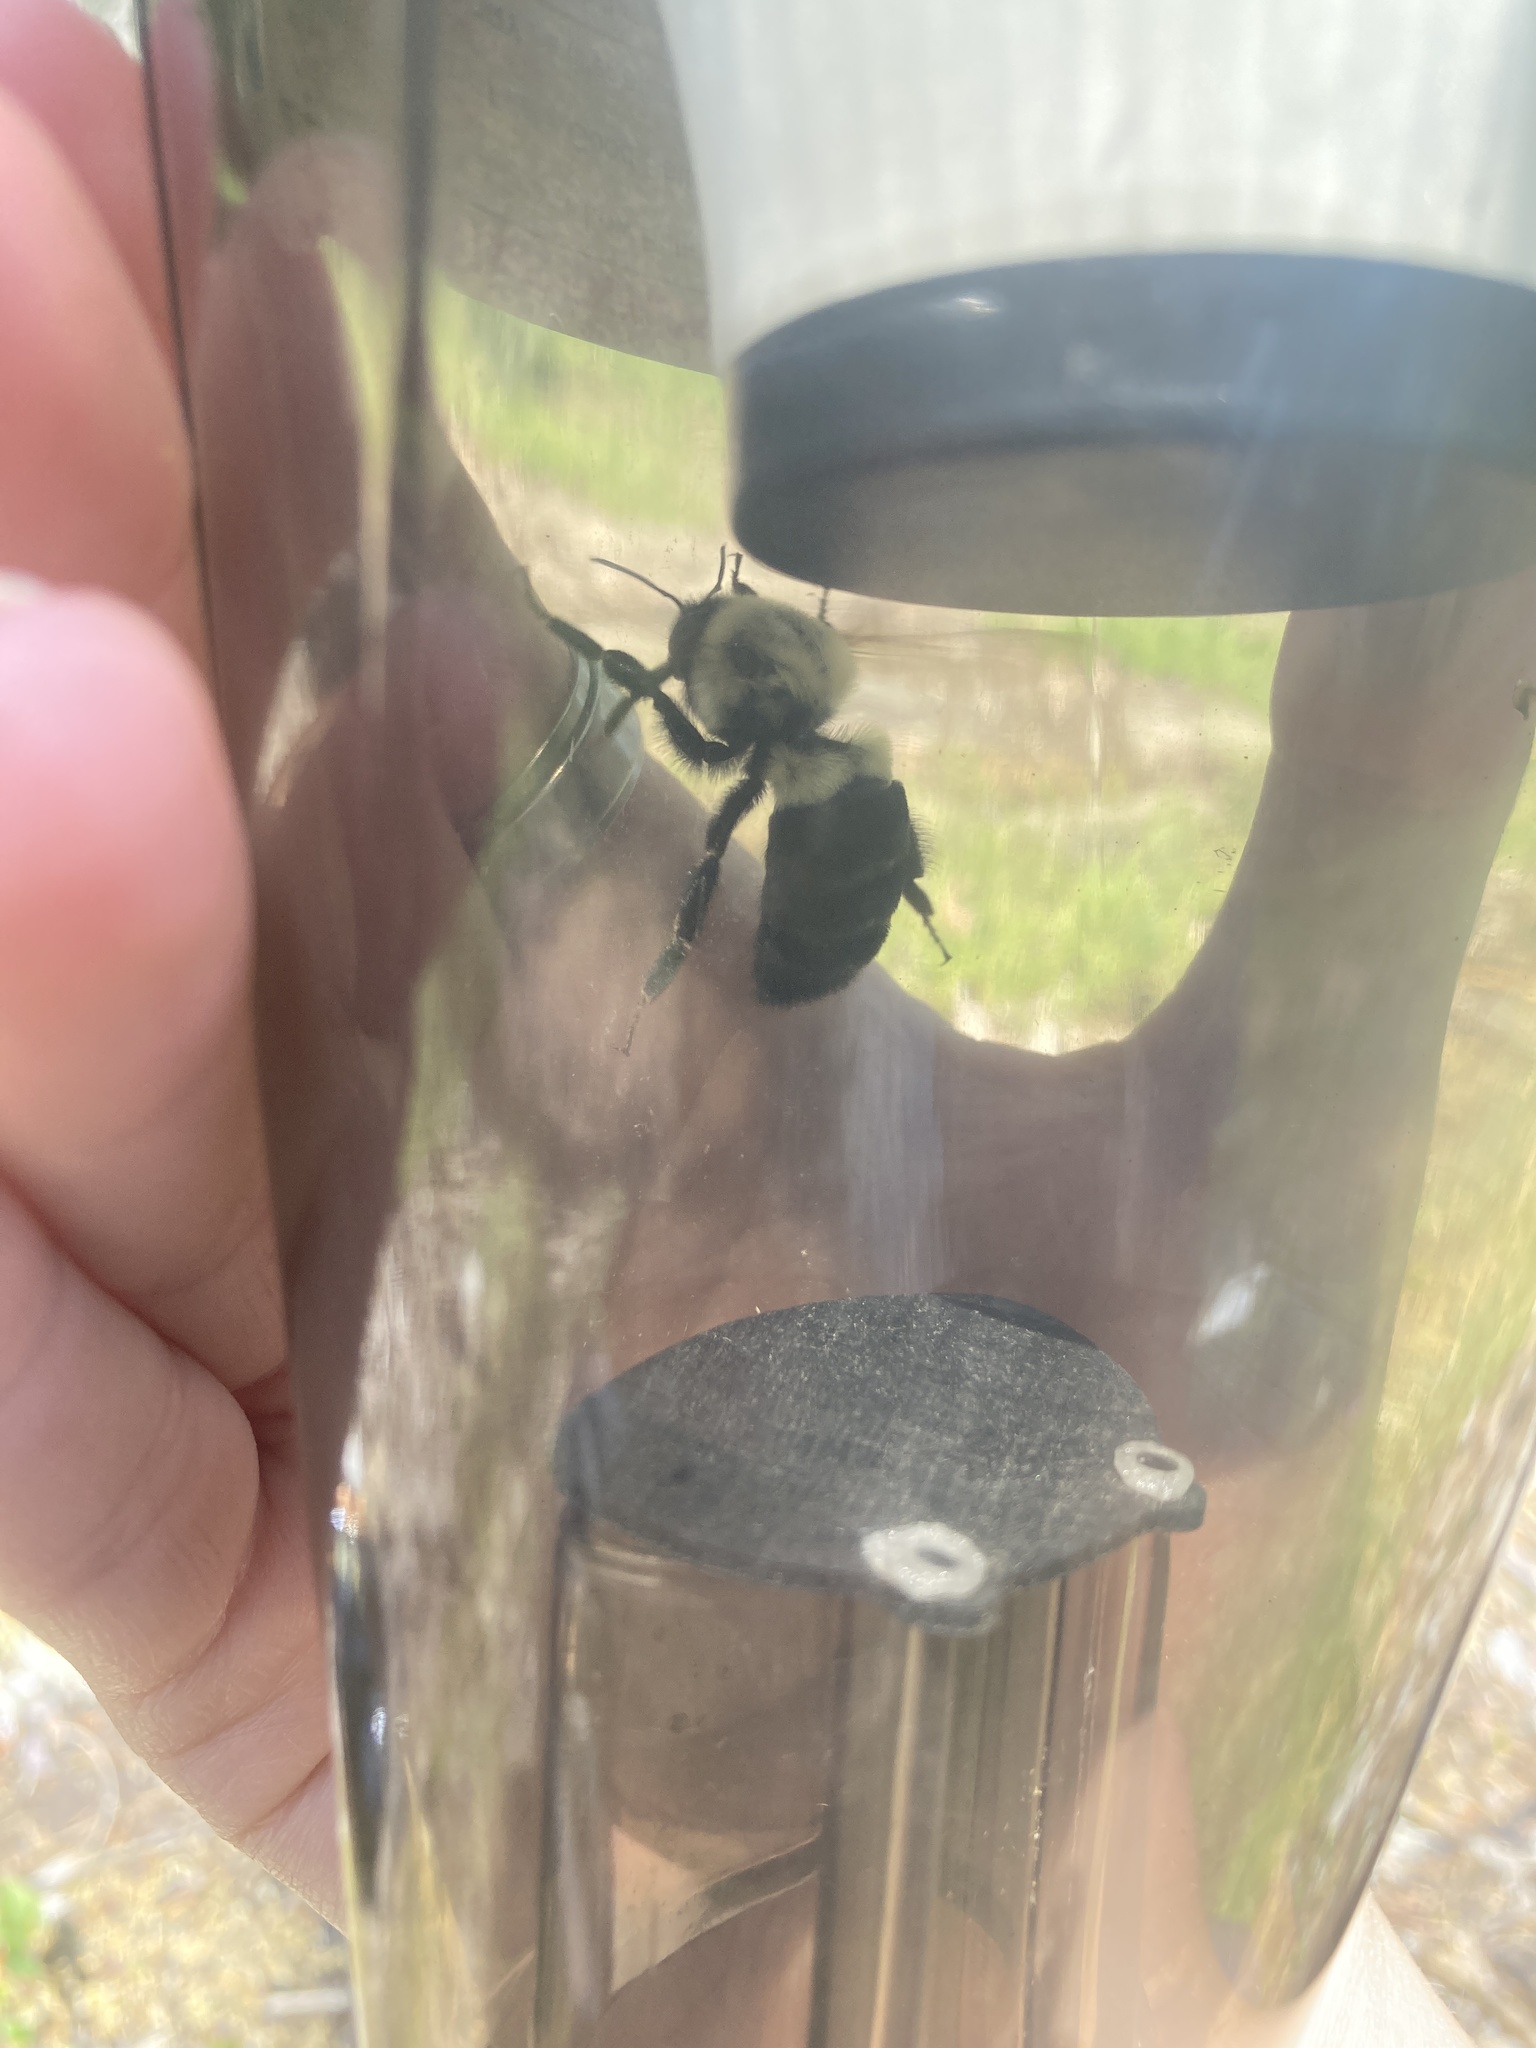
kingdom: Animalia
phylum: Arthropoda
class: Insecta
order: Hymenoptera
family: Apidae
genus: Bombus
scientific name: Bombus impatiens
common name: Common eastern bumble bee
